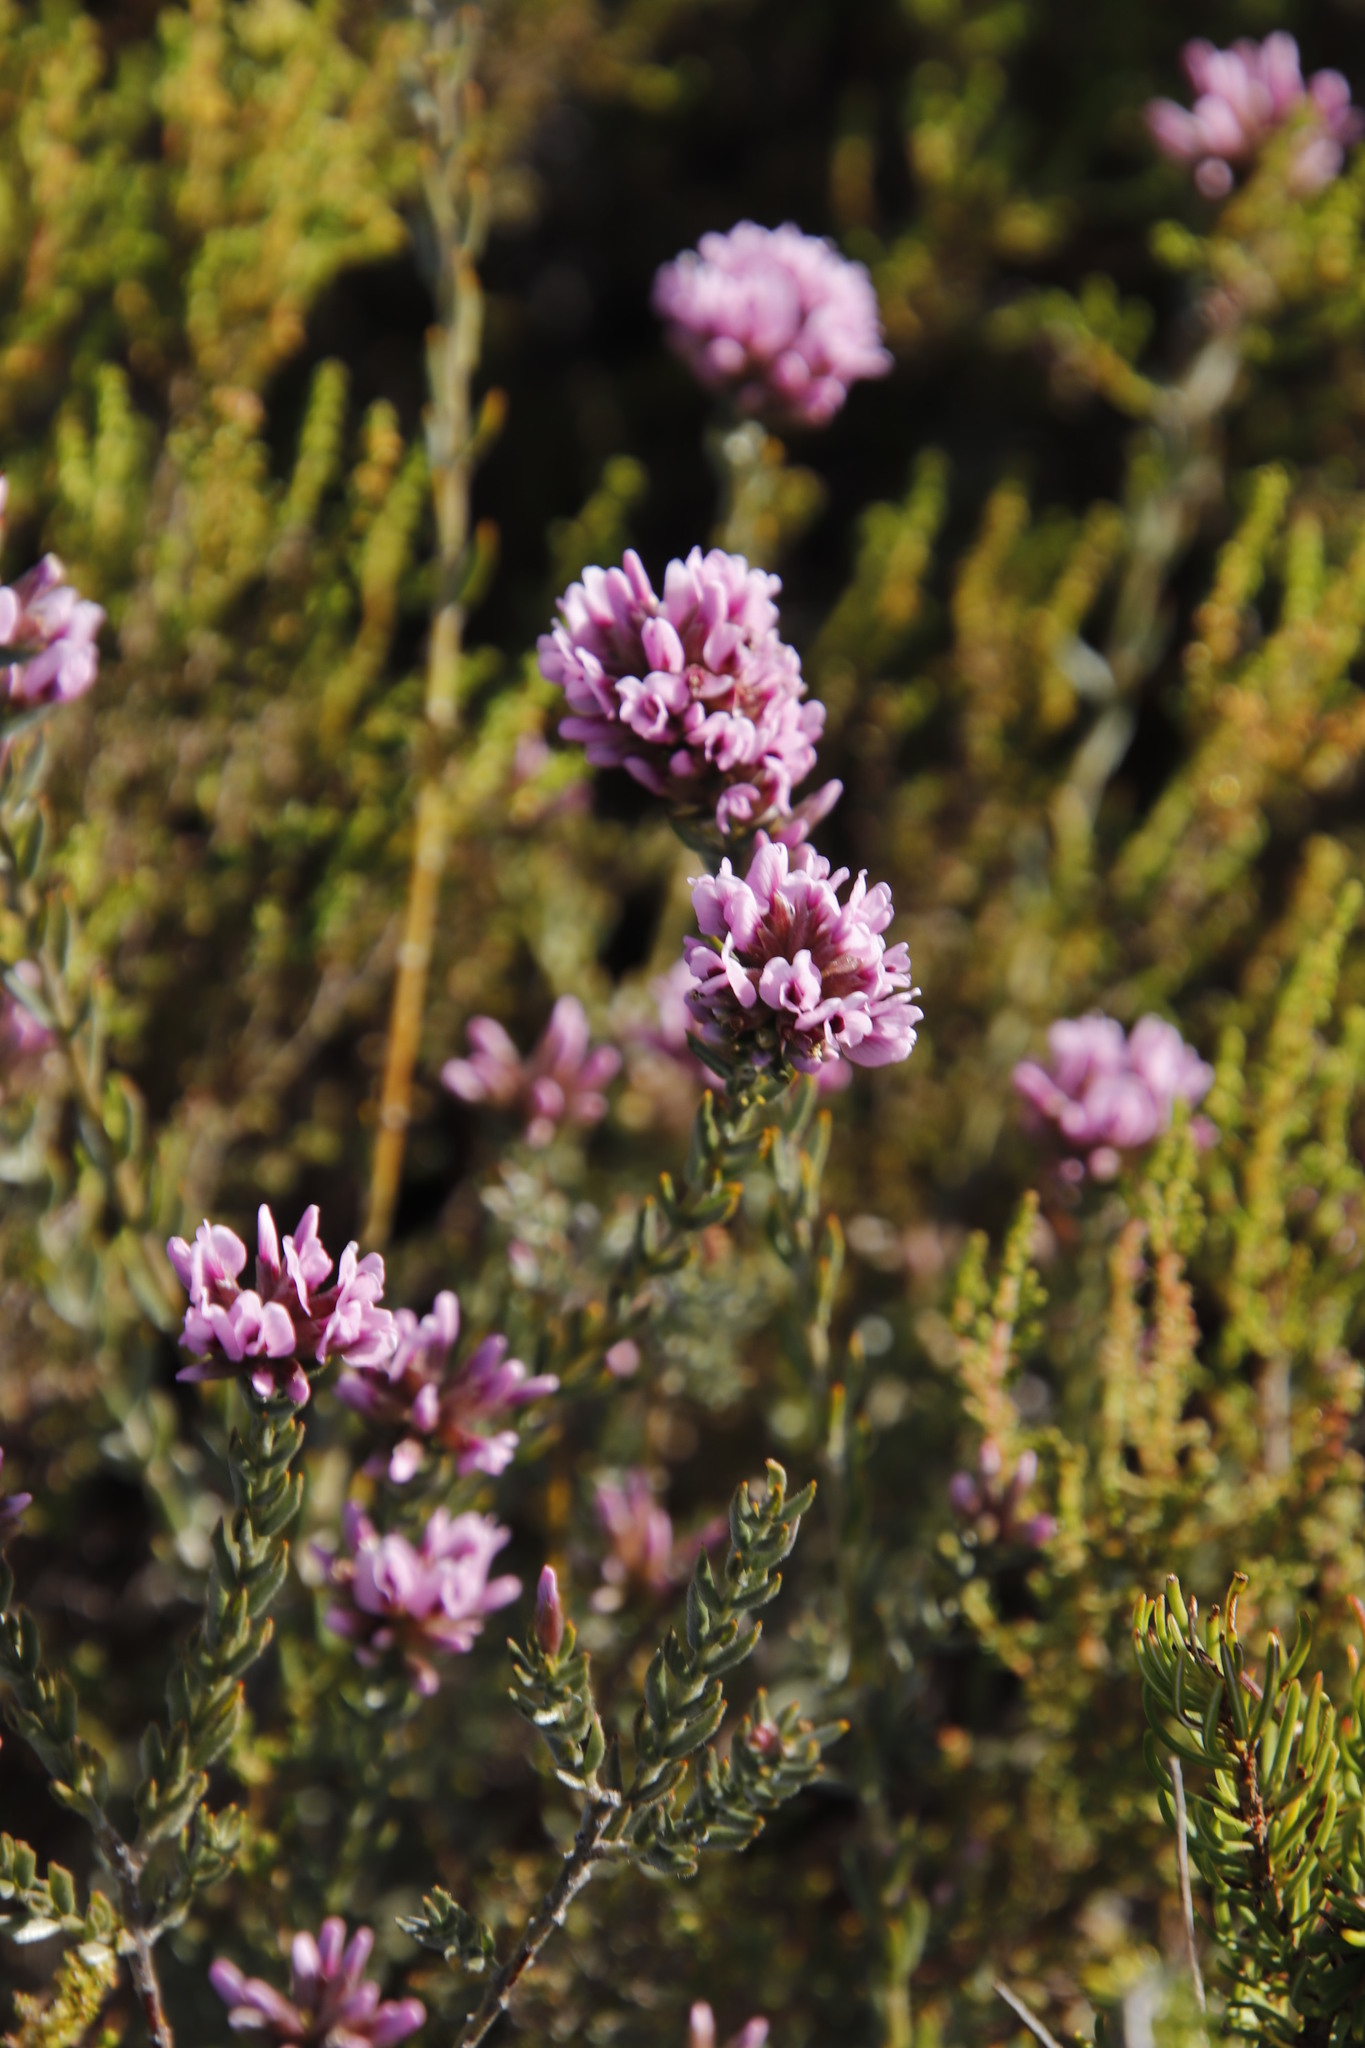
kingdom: Plantae
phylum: Tracheophyta
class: Magnoliopsida
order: Fabales
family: Fabaceae
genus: Amphithalea
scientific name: Amphithalea ericifolia
